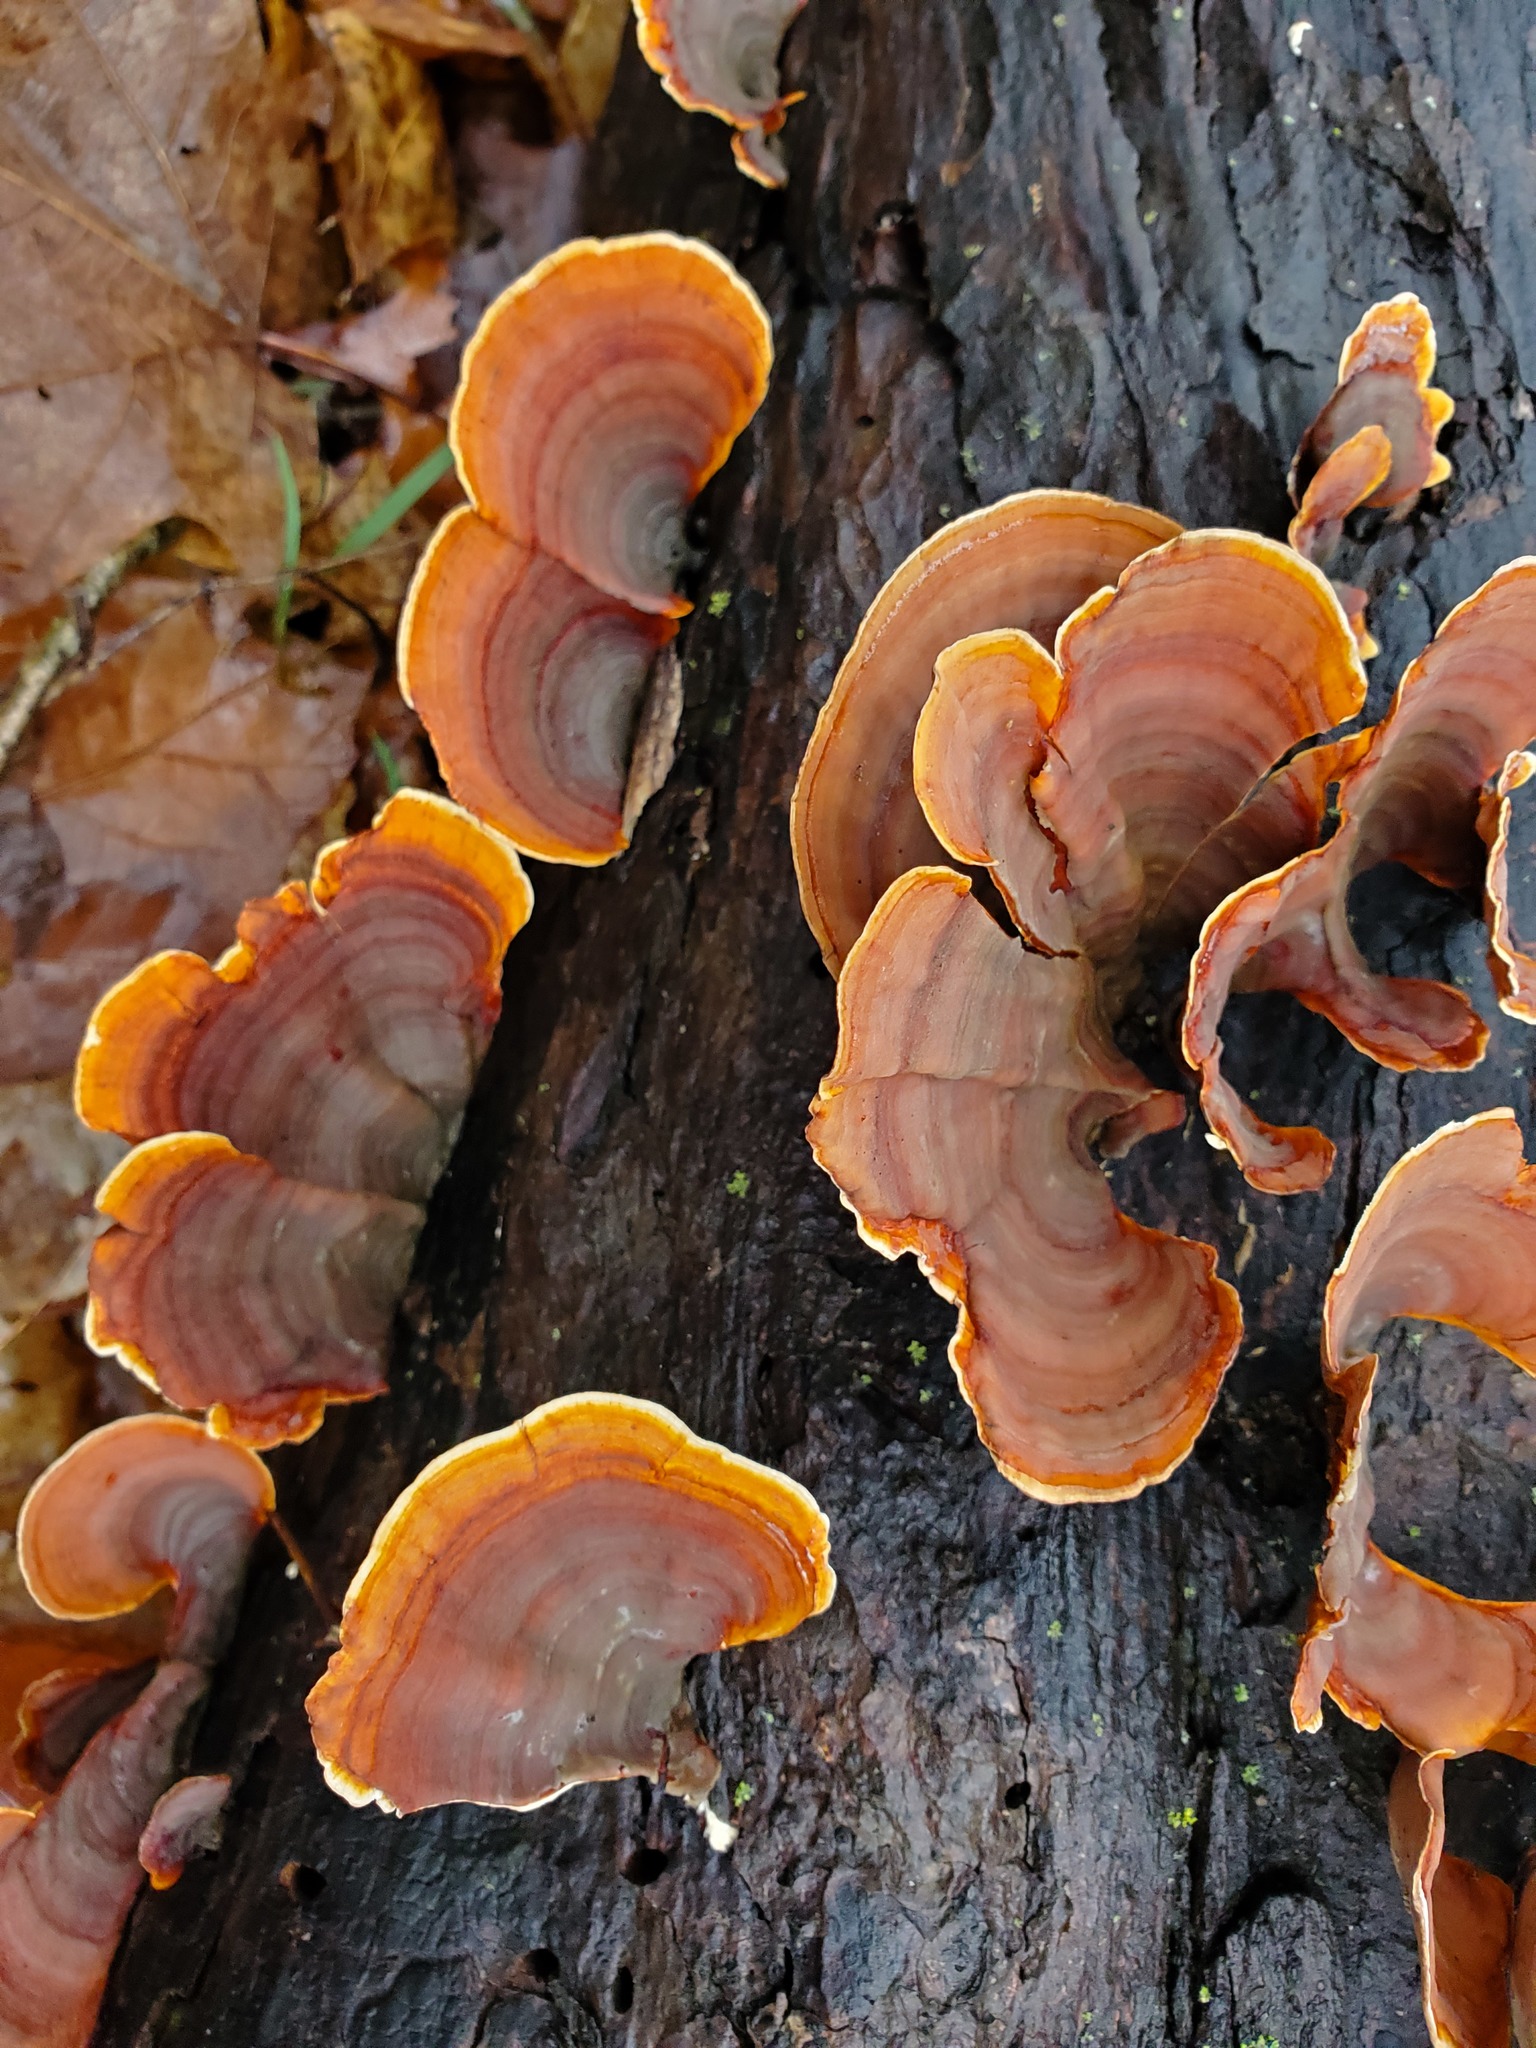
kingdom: Fungi
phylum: Basidiomycota
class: Agaricomycetes
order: Russulales
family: Stereaceae
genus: Stereum
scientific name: Stereum lobatum
